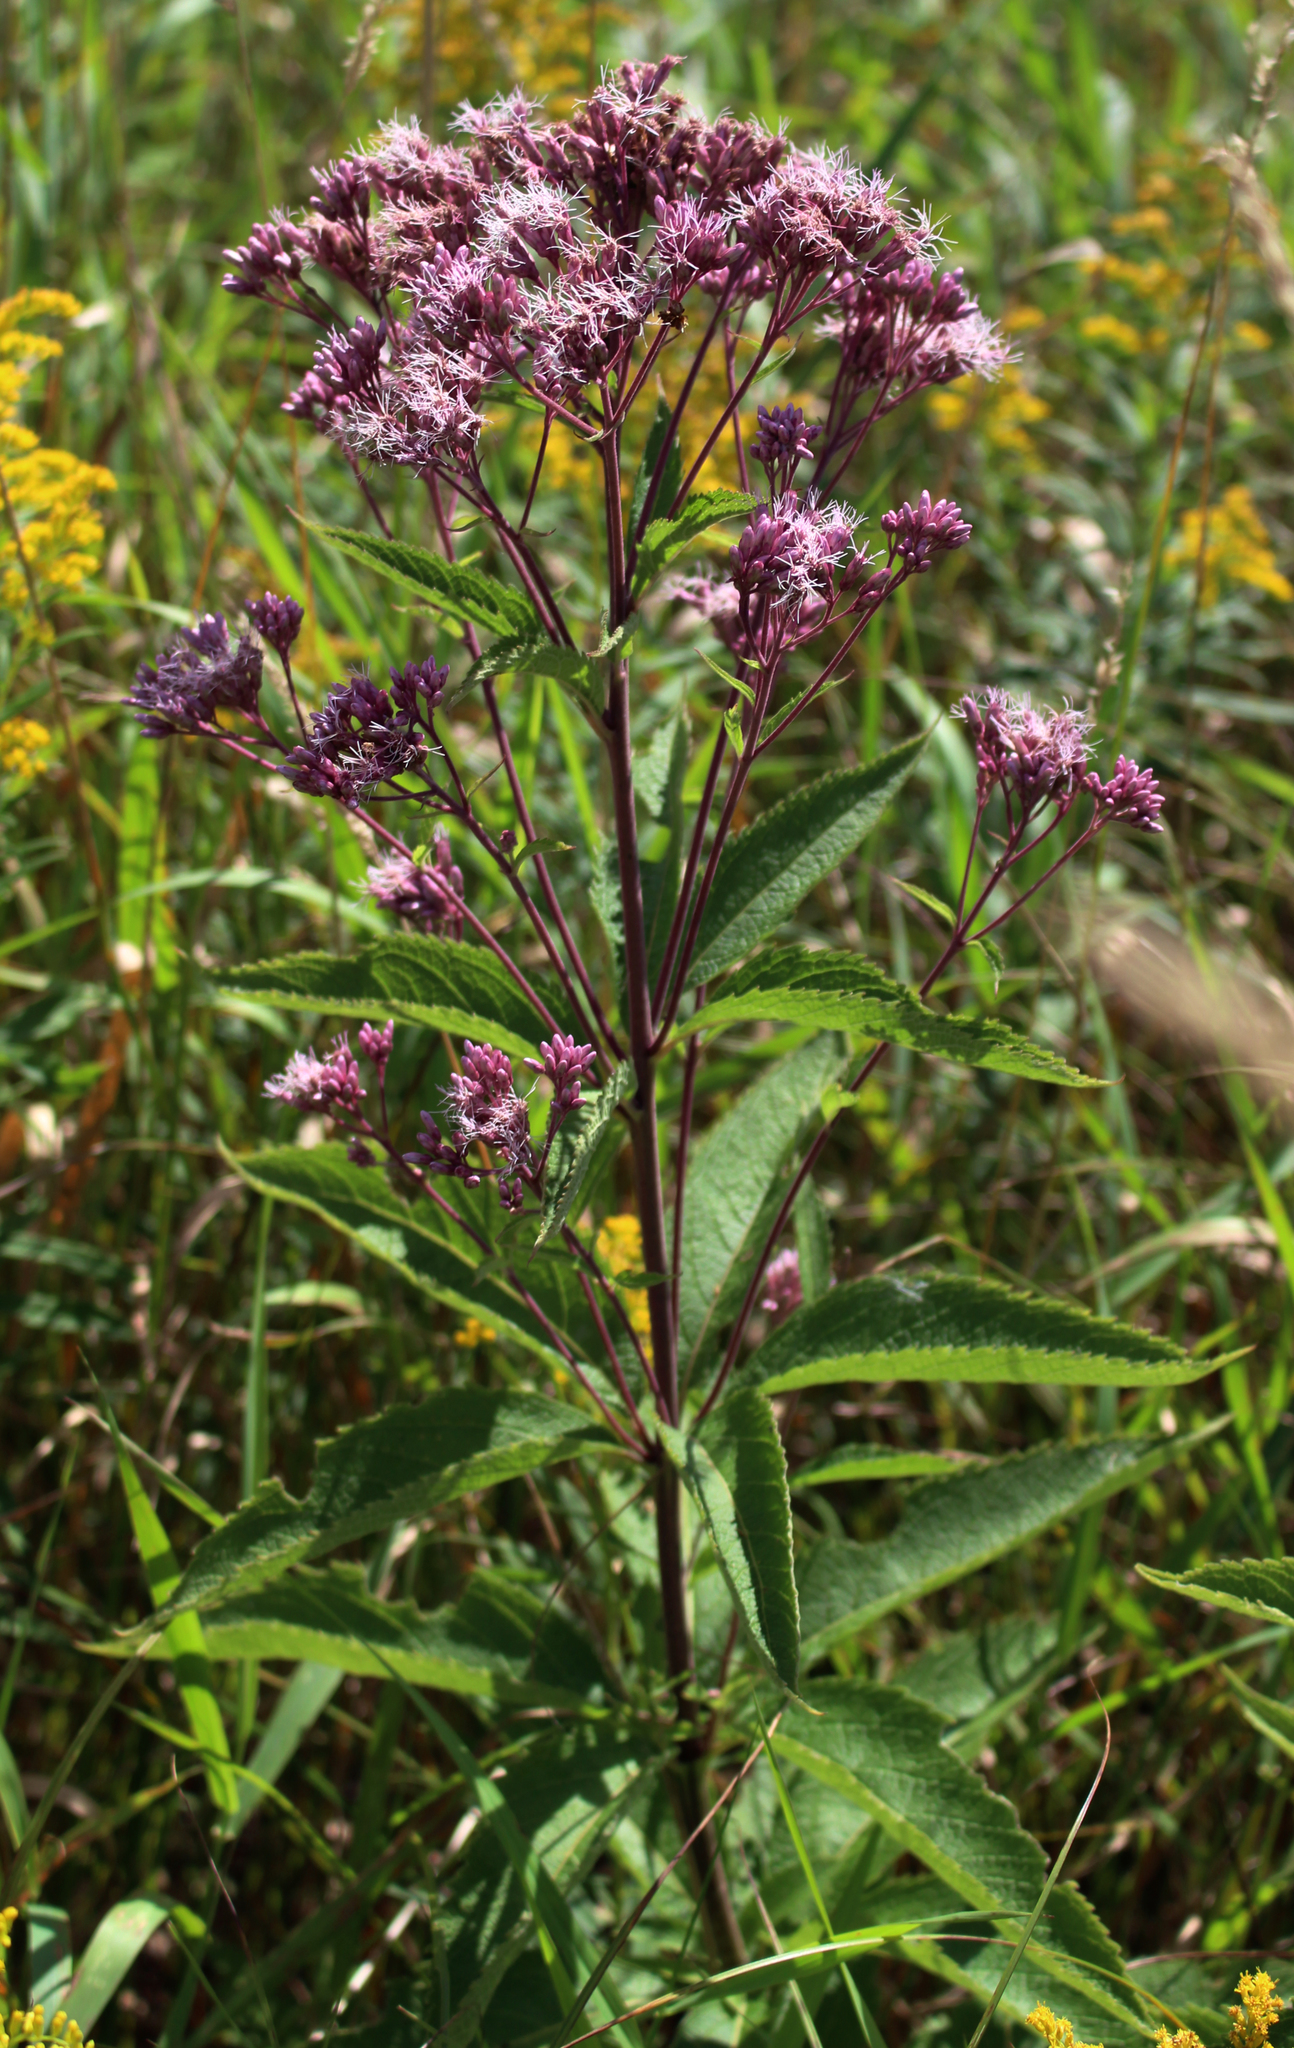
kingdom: Plantae
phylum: Tracheophyta
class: Magnoliopsida
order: Asterales
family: Asteraceae
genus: Eutrochium
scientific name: Eutrochium maculatum
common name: Spotted joe pye weed
